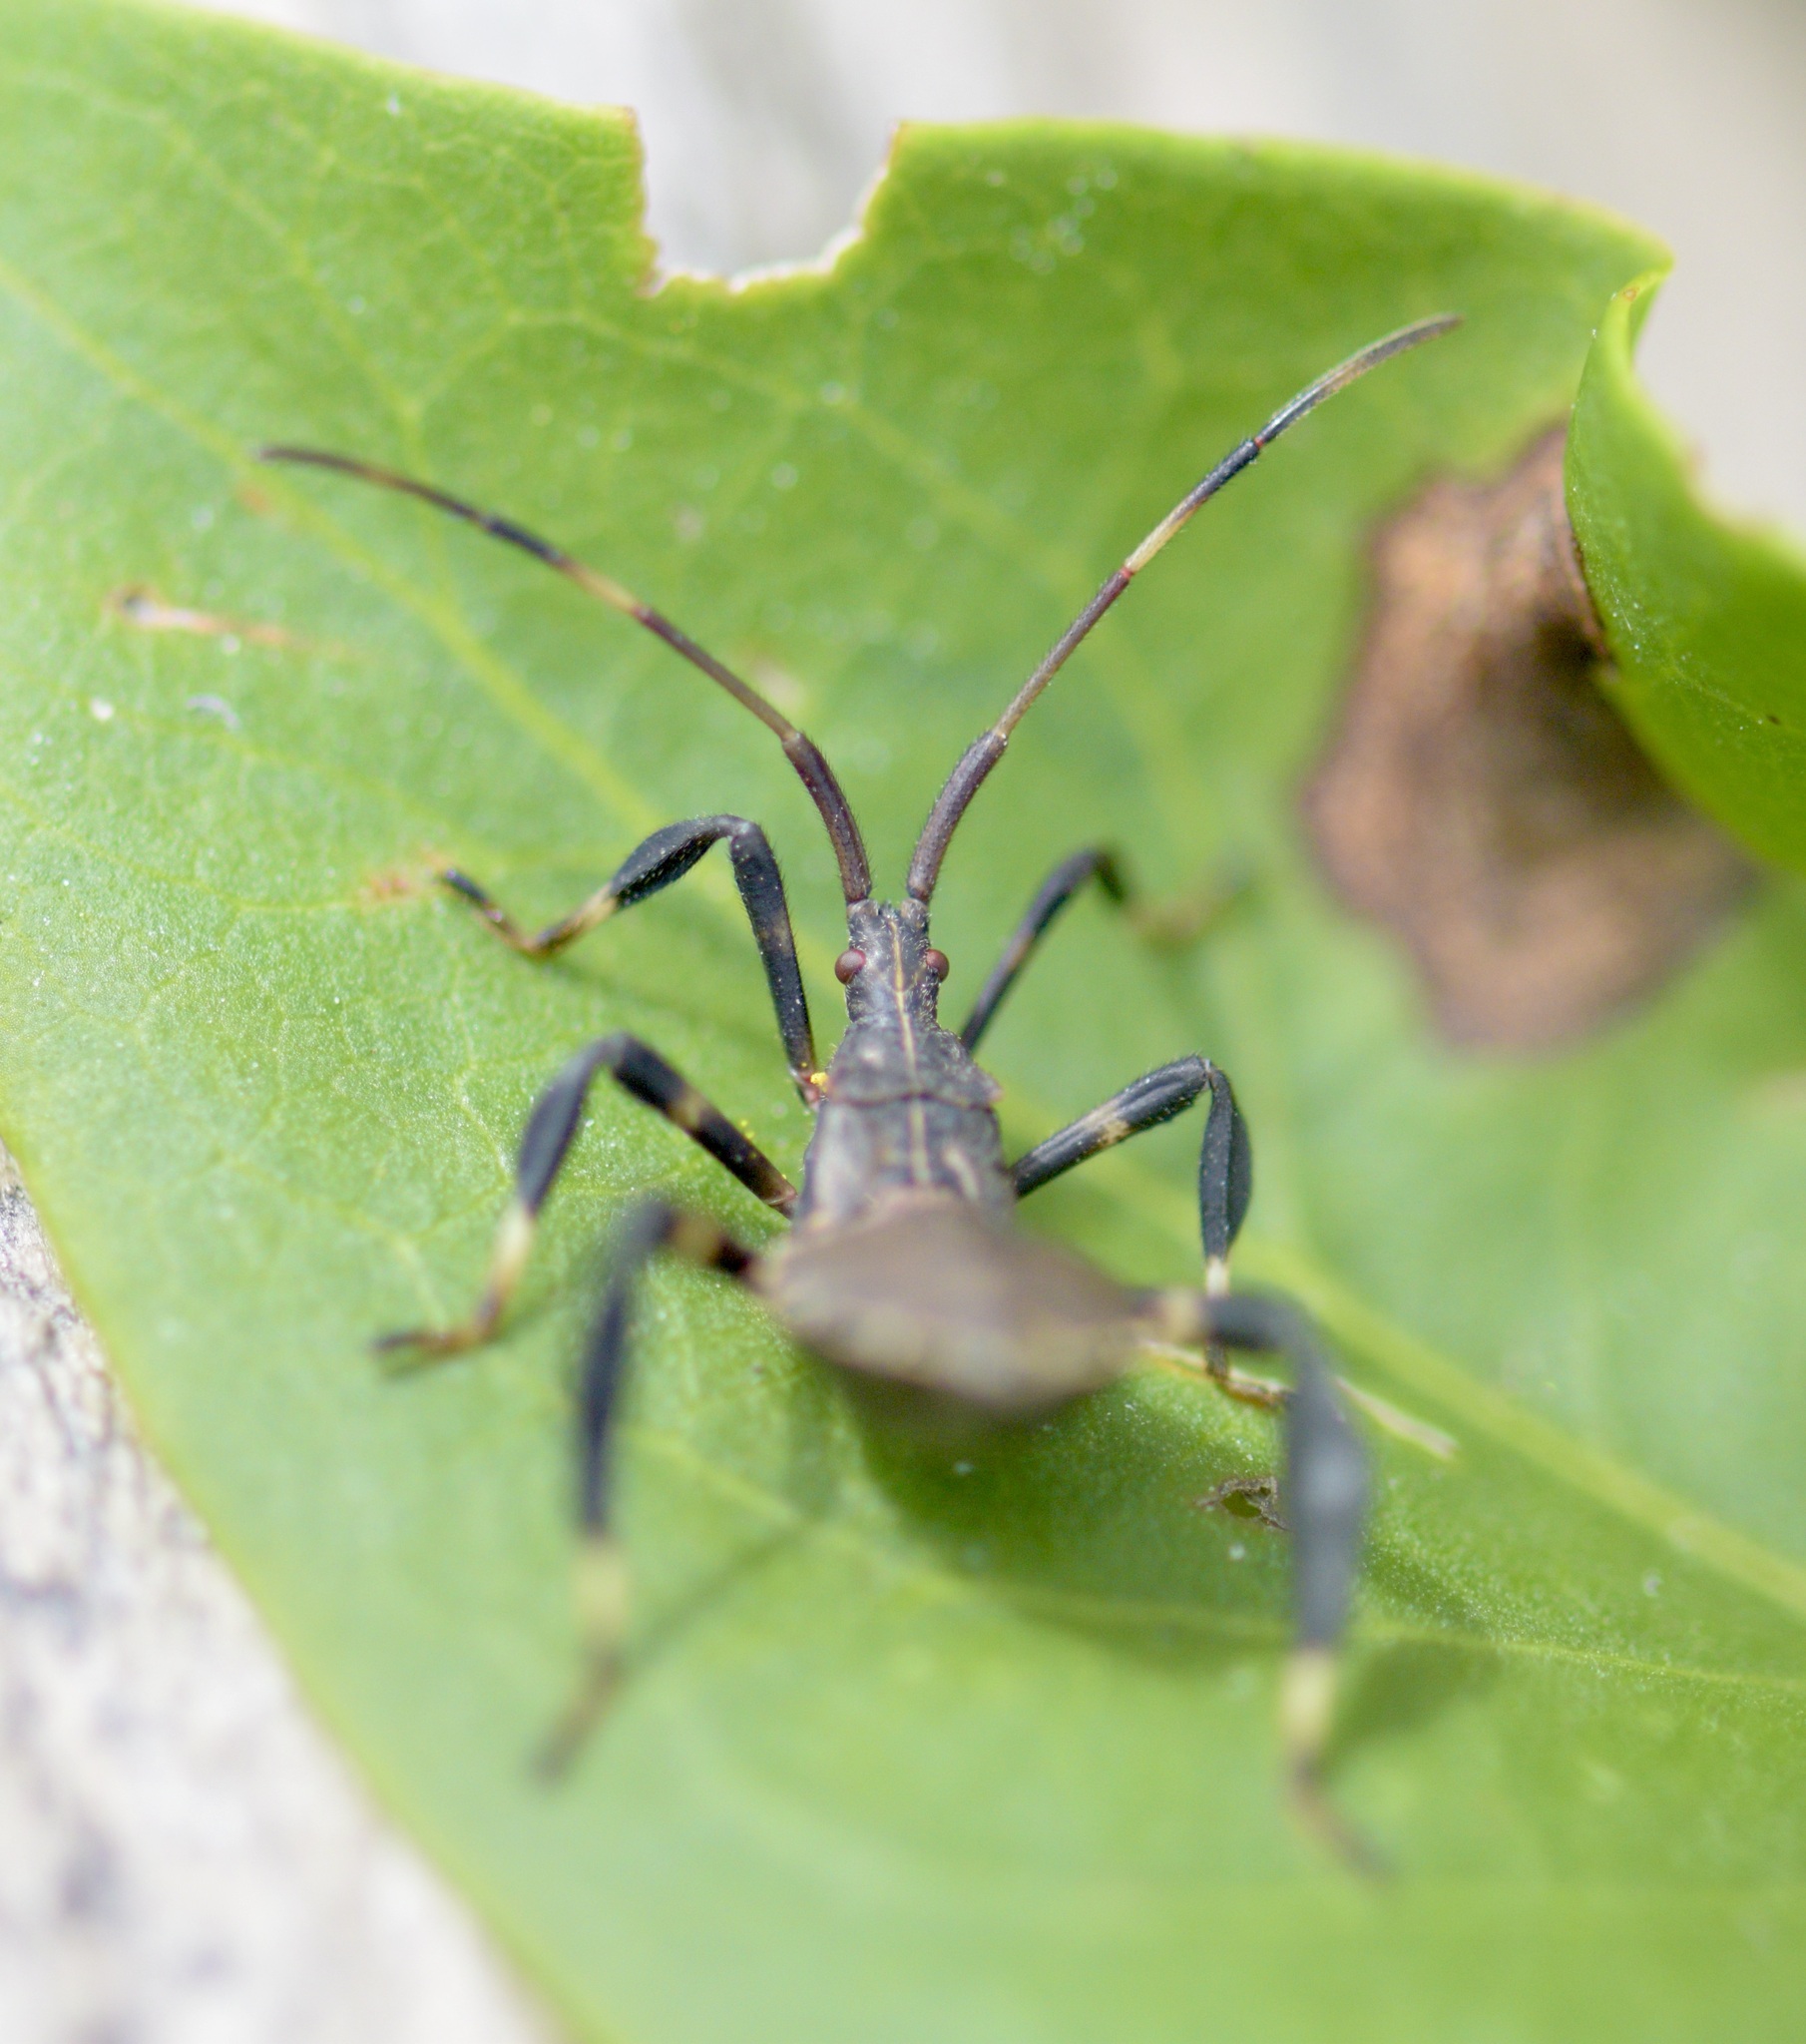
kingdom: Animalia
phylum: Arthropoda
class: Insecta
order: Hemiptera
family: Coreidae
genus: Acanthocephala
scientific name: Acanthocephala terminalis
